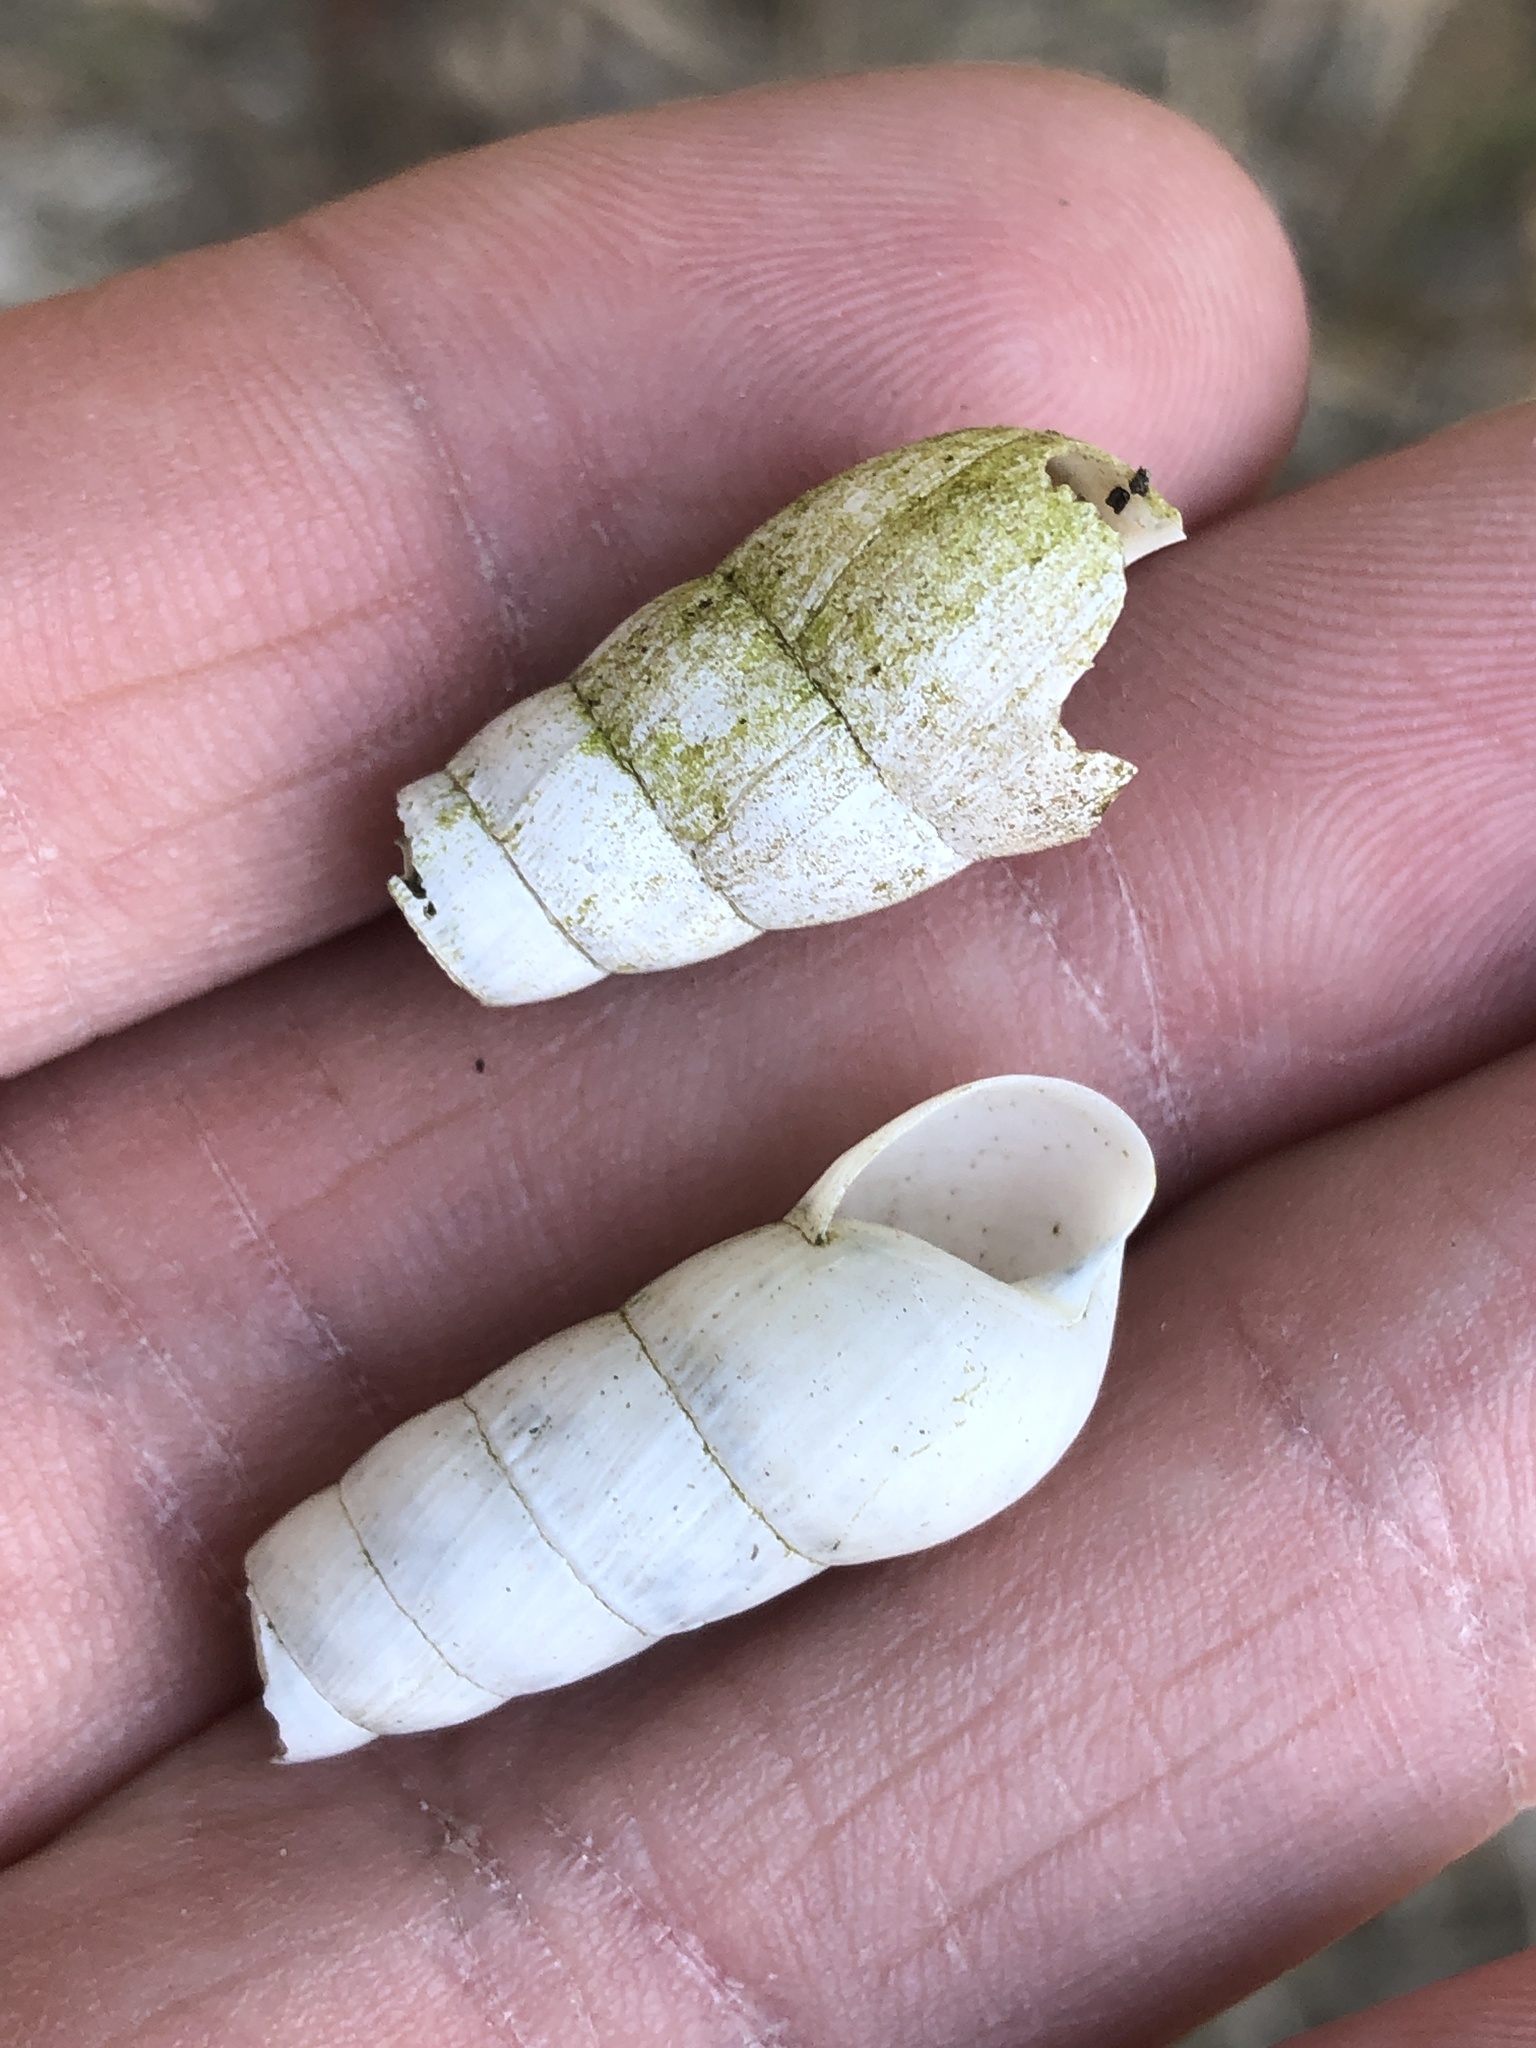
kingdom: Animalia
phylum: Mollusca
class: Gastropoda
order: Stylommatophora
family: Achatinidae
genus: Rumina
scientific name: Rumina decollata
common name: Decollate snail
